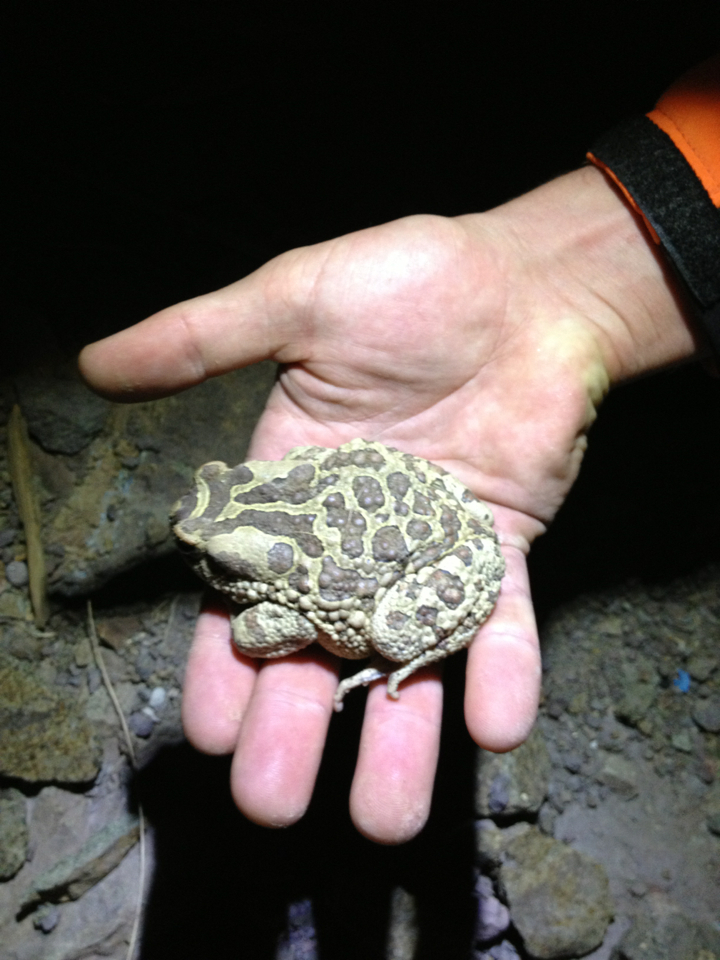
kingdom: Animalia
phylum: Chordata
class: Amphibia
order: Anura
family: Bufonidae
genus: Sclerophrys
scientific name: Sclerophrys mauritanica
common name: Berber toad
